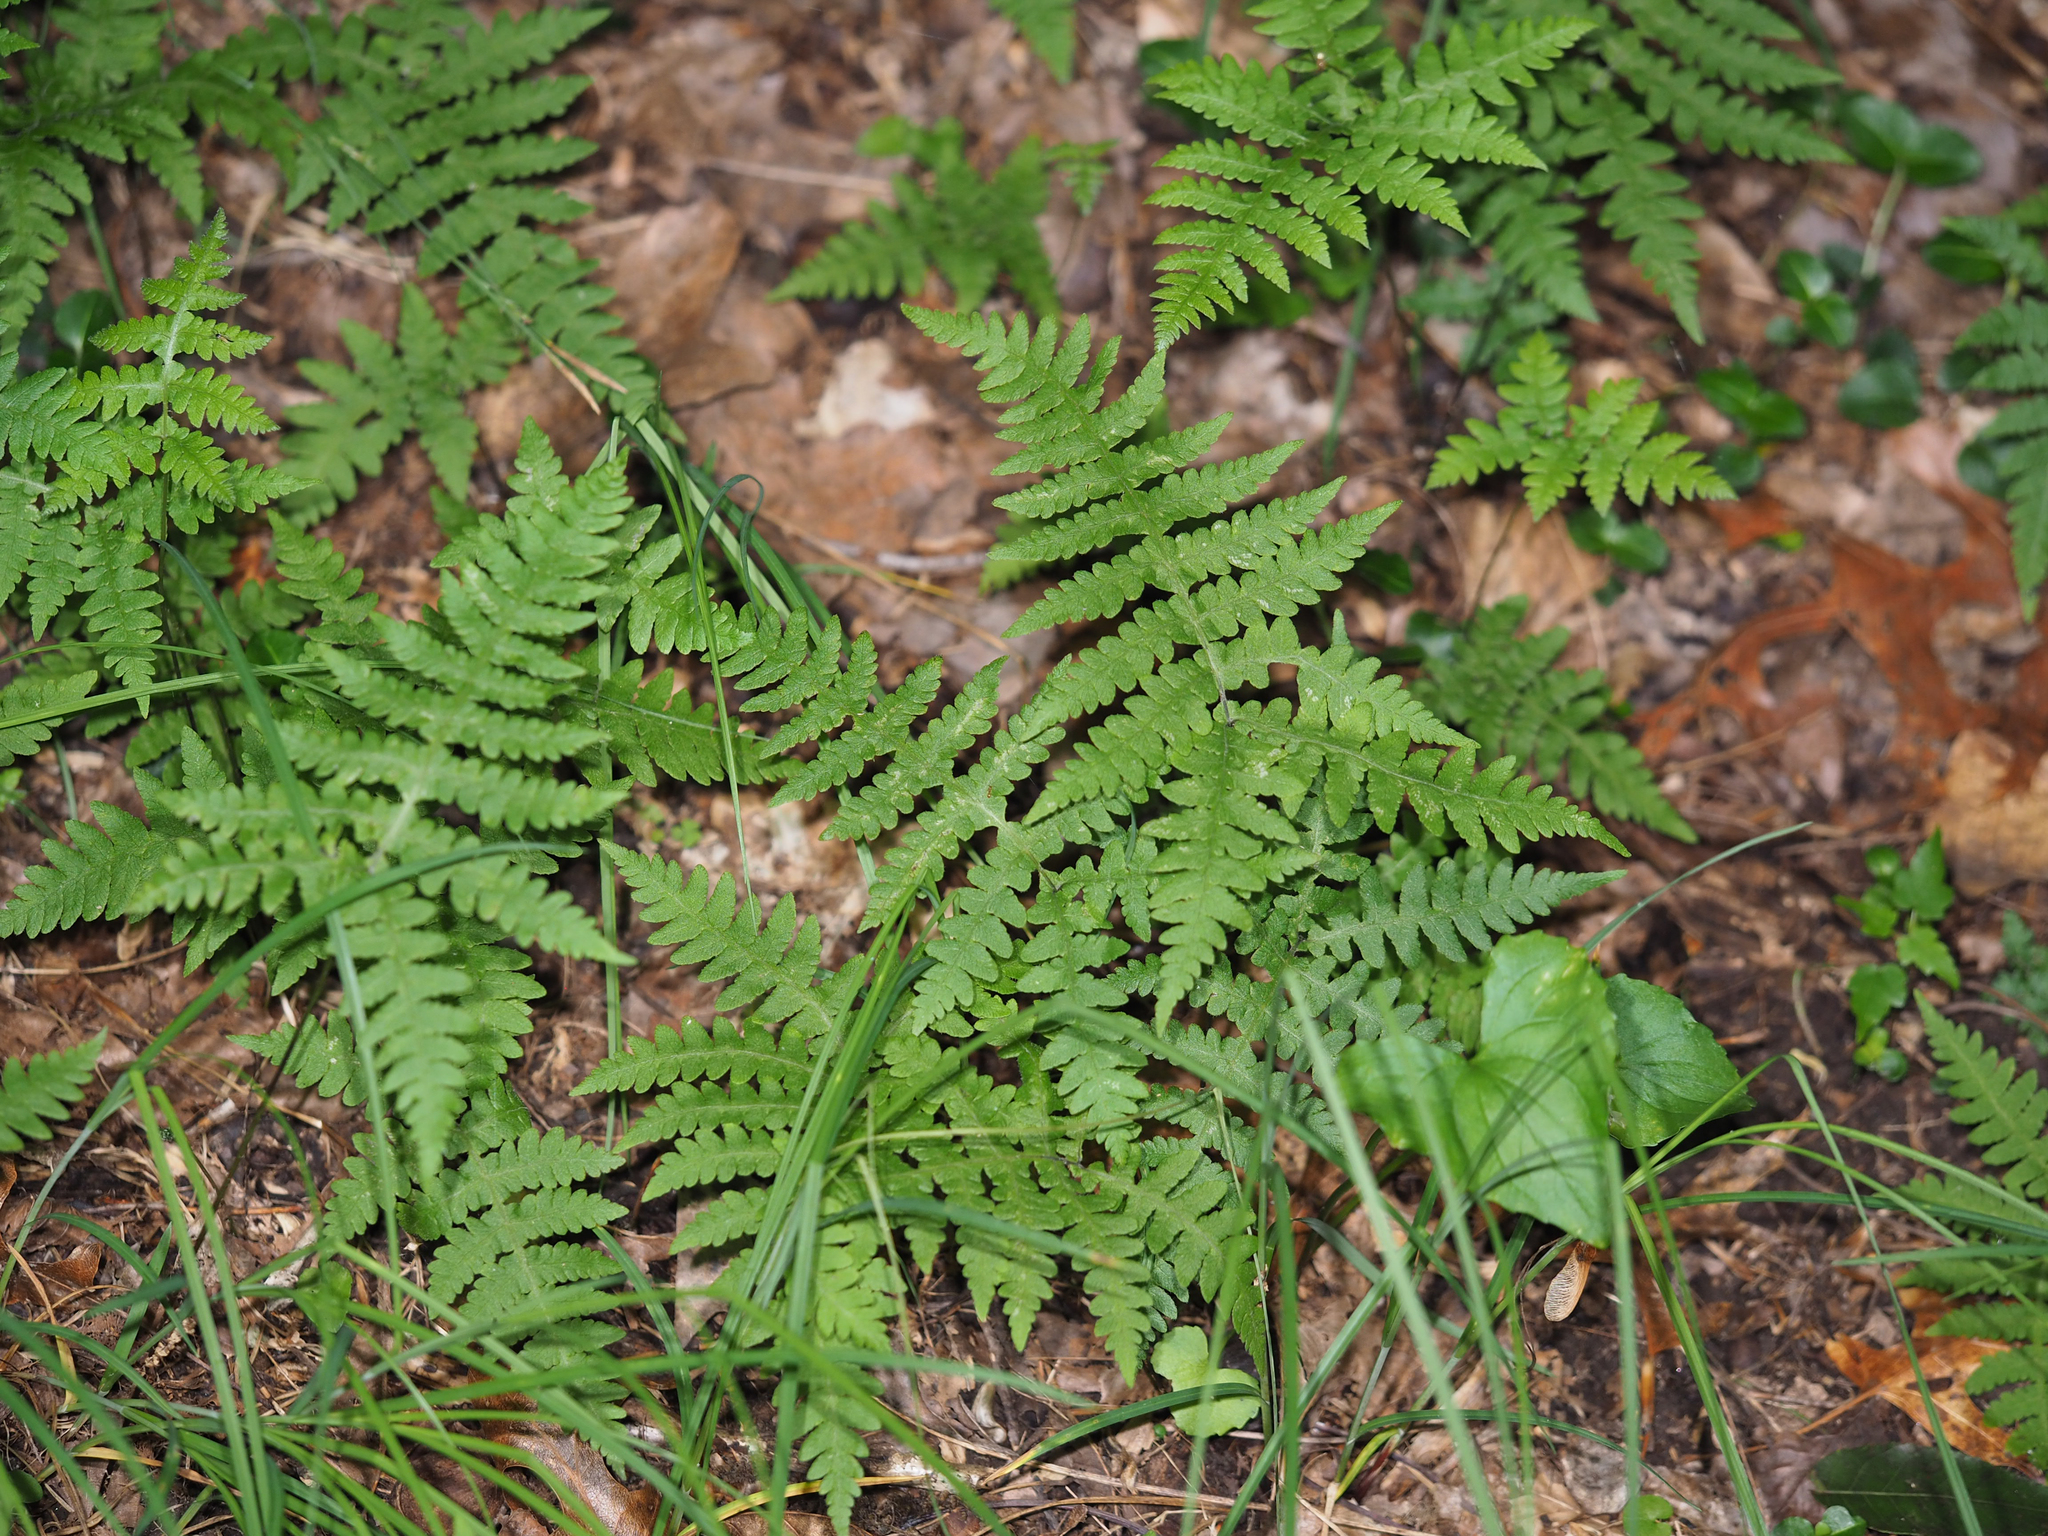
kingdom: Plantae
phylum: Tracheophyta
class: Polypodiopsida
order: Polypodiales
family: Thelypteridaceae
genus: Phegopteris
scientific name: Phegopteris hexagonoptera
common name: Broad beech fern
